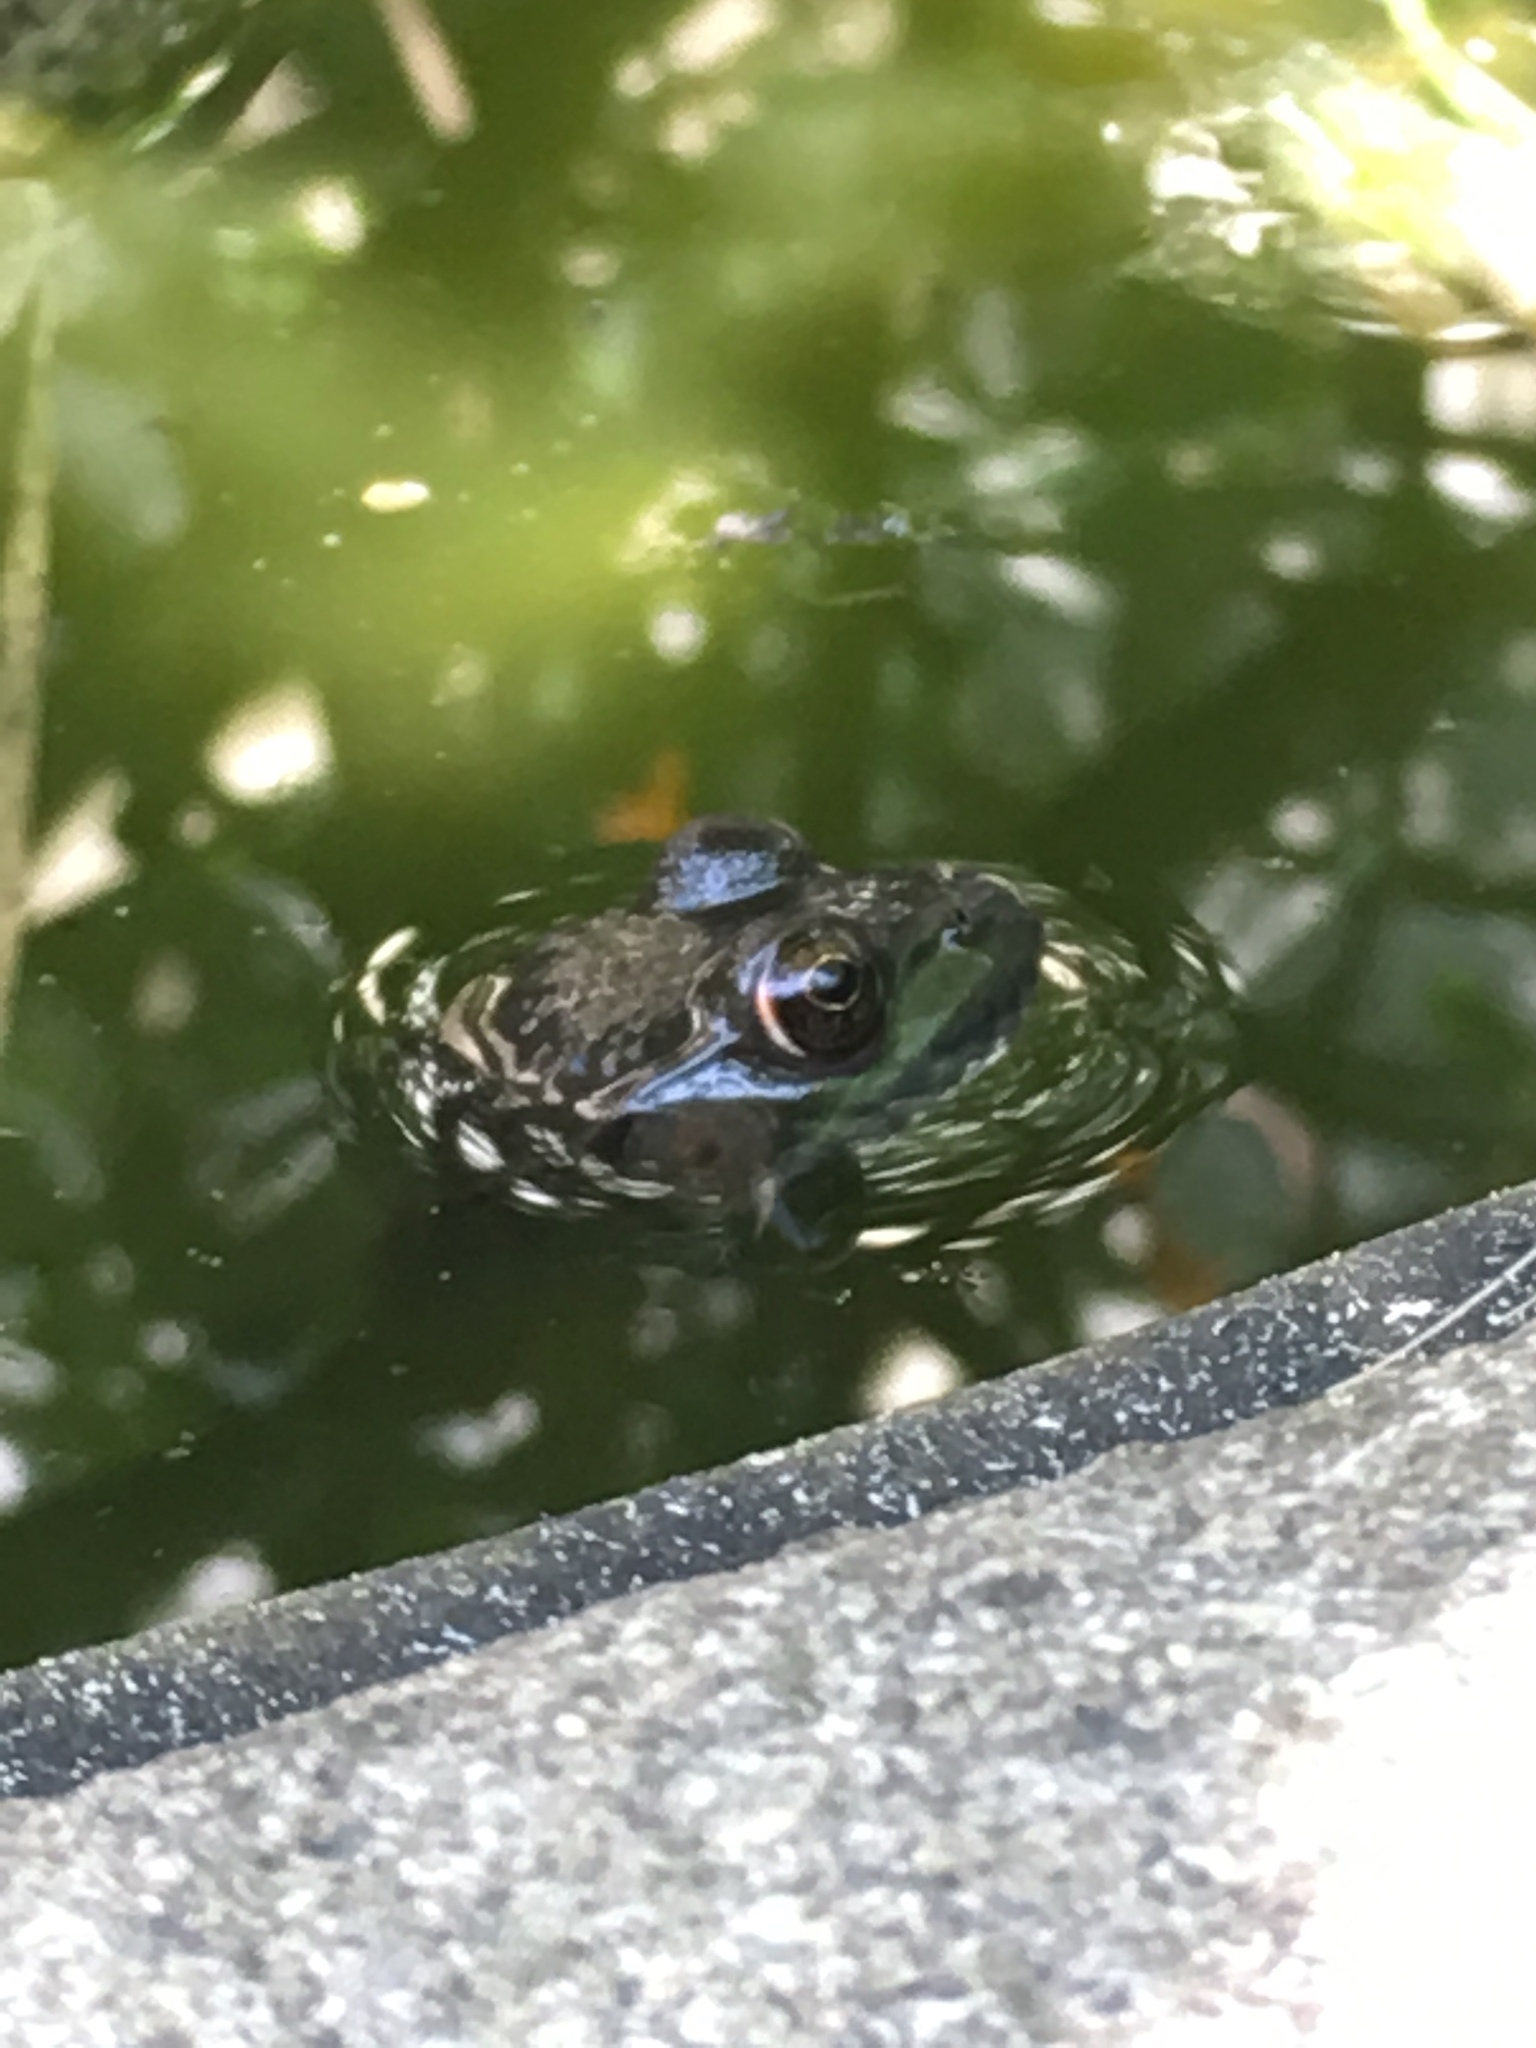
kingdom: Animalia
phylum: Chordata
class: Amphibia
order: Anura
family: Ranidae
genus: Lithobates
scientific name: Lithobates clamitans
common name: Green frog
